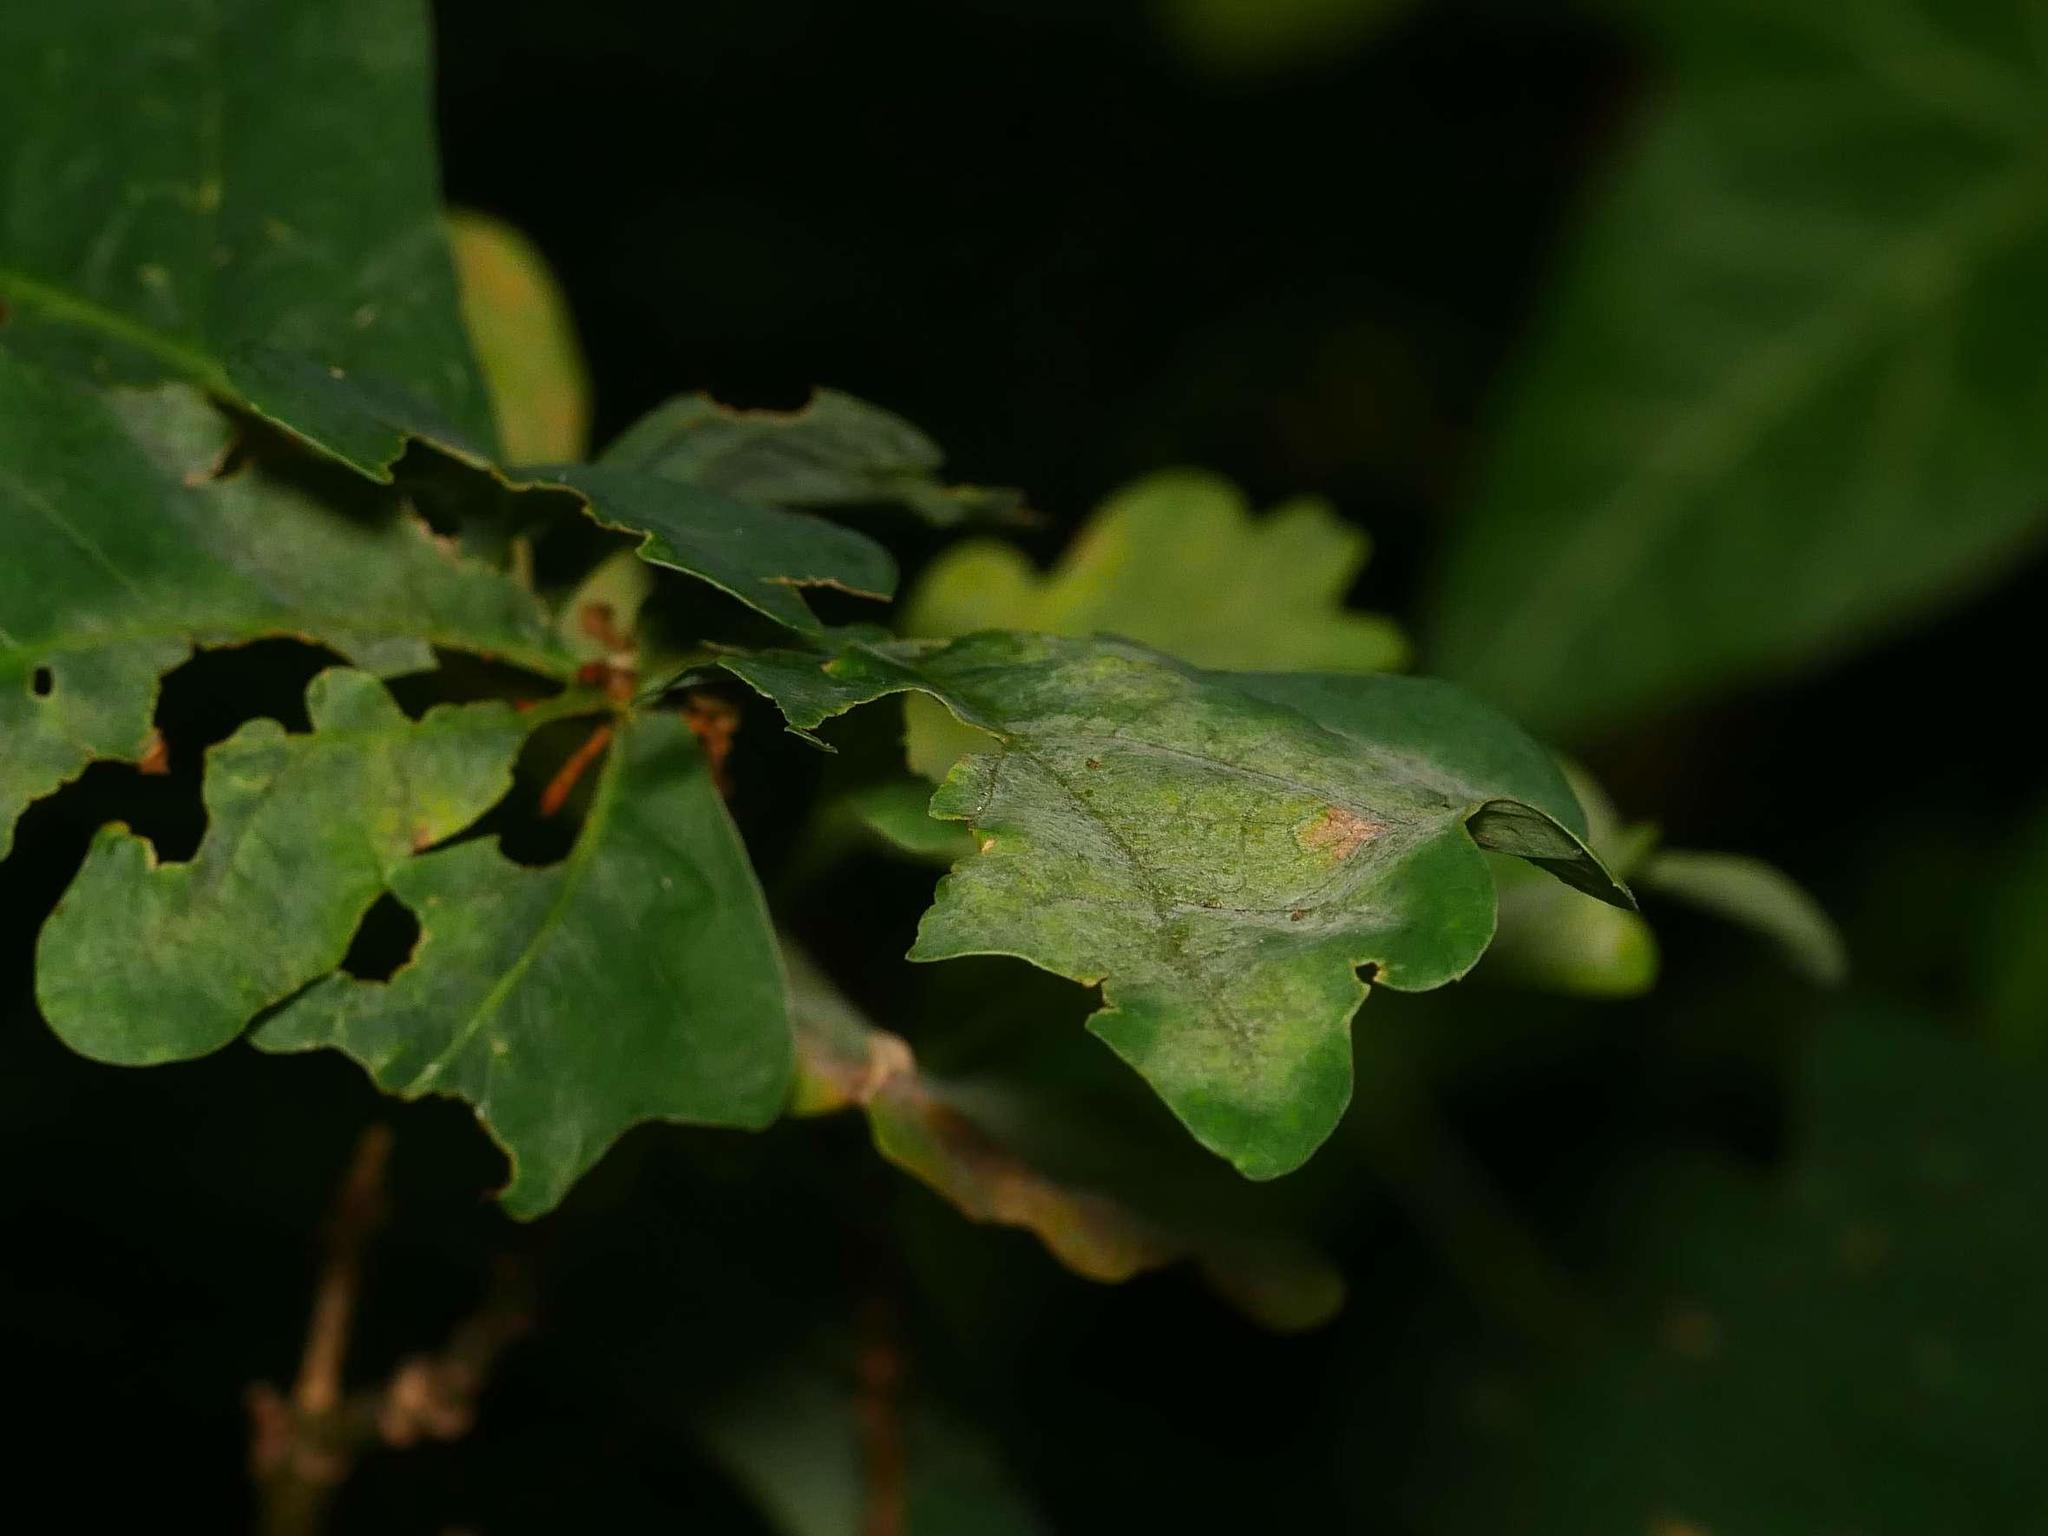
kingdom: Fungi
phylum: Ascomycota
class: Leotiomycetes
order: Helotiales
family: Erysiphaceae
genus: Erysiphe
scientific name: Erysiphe
